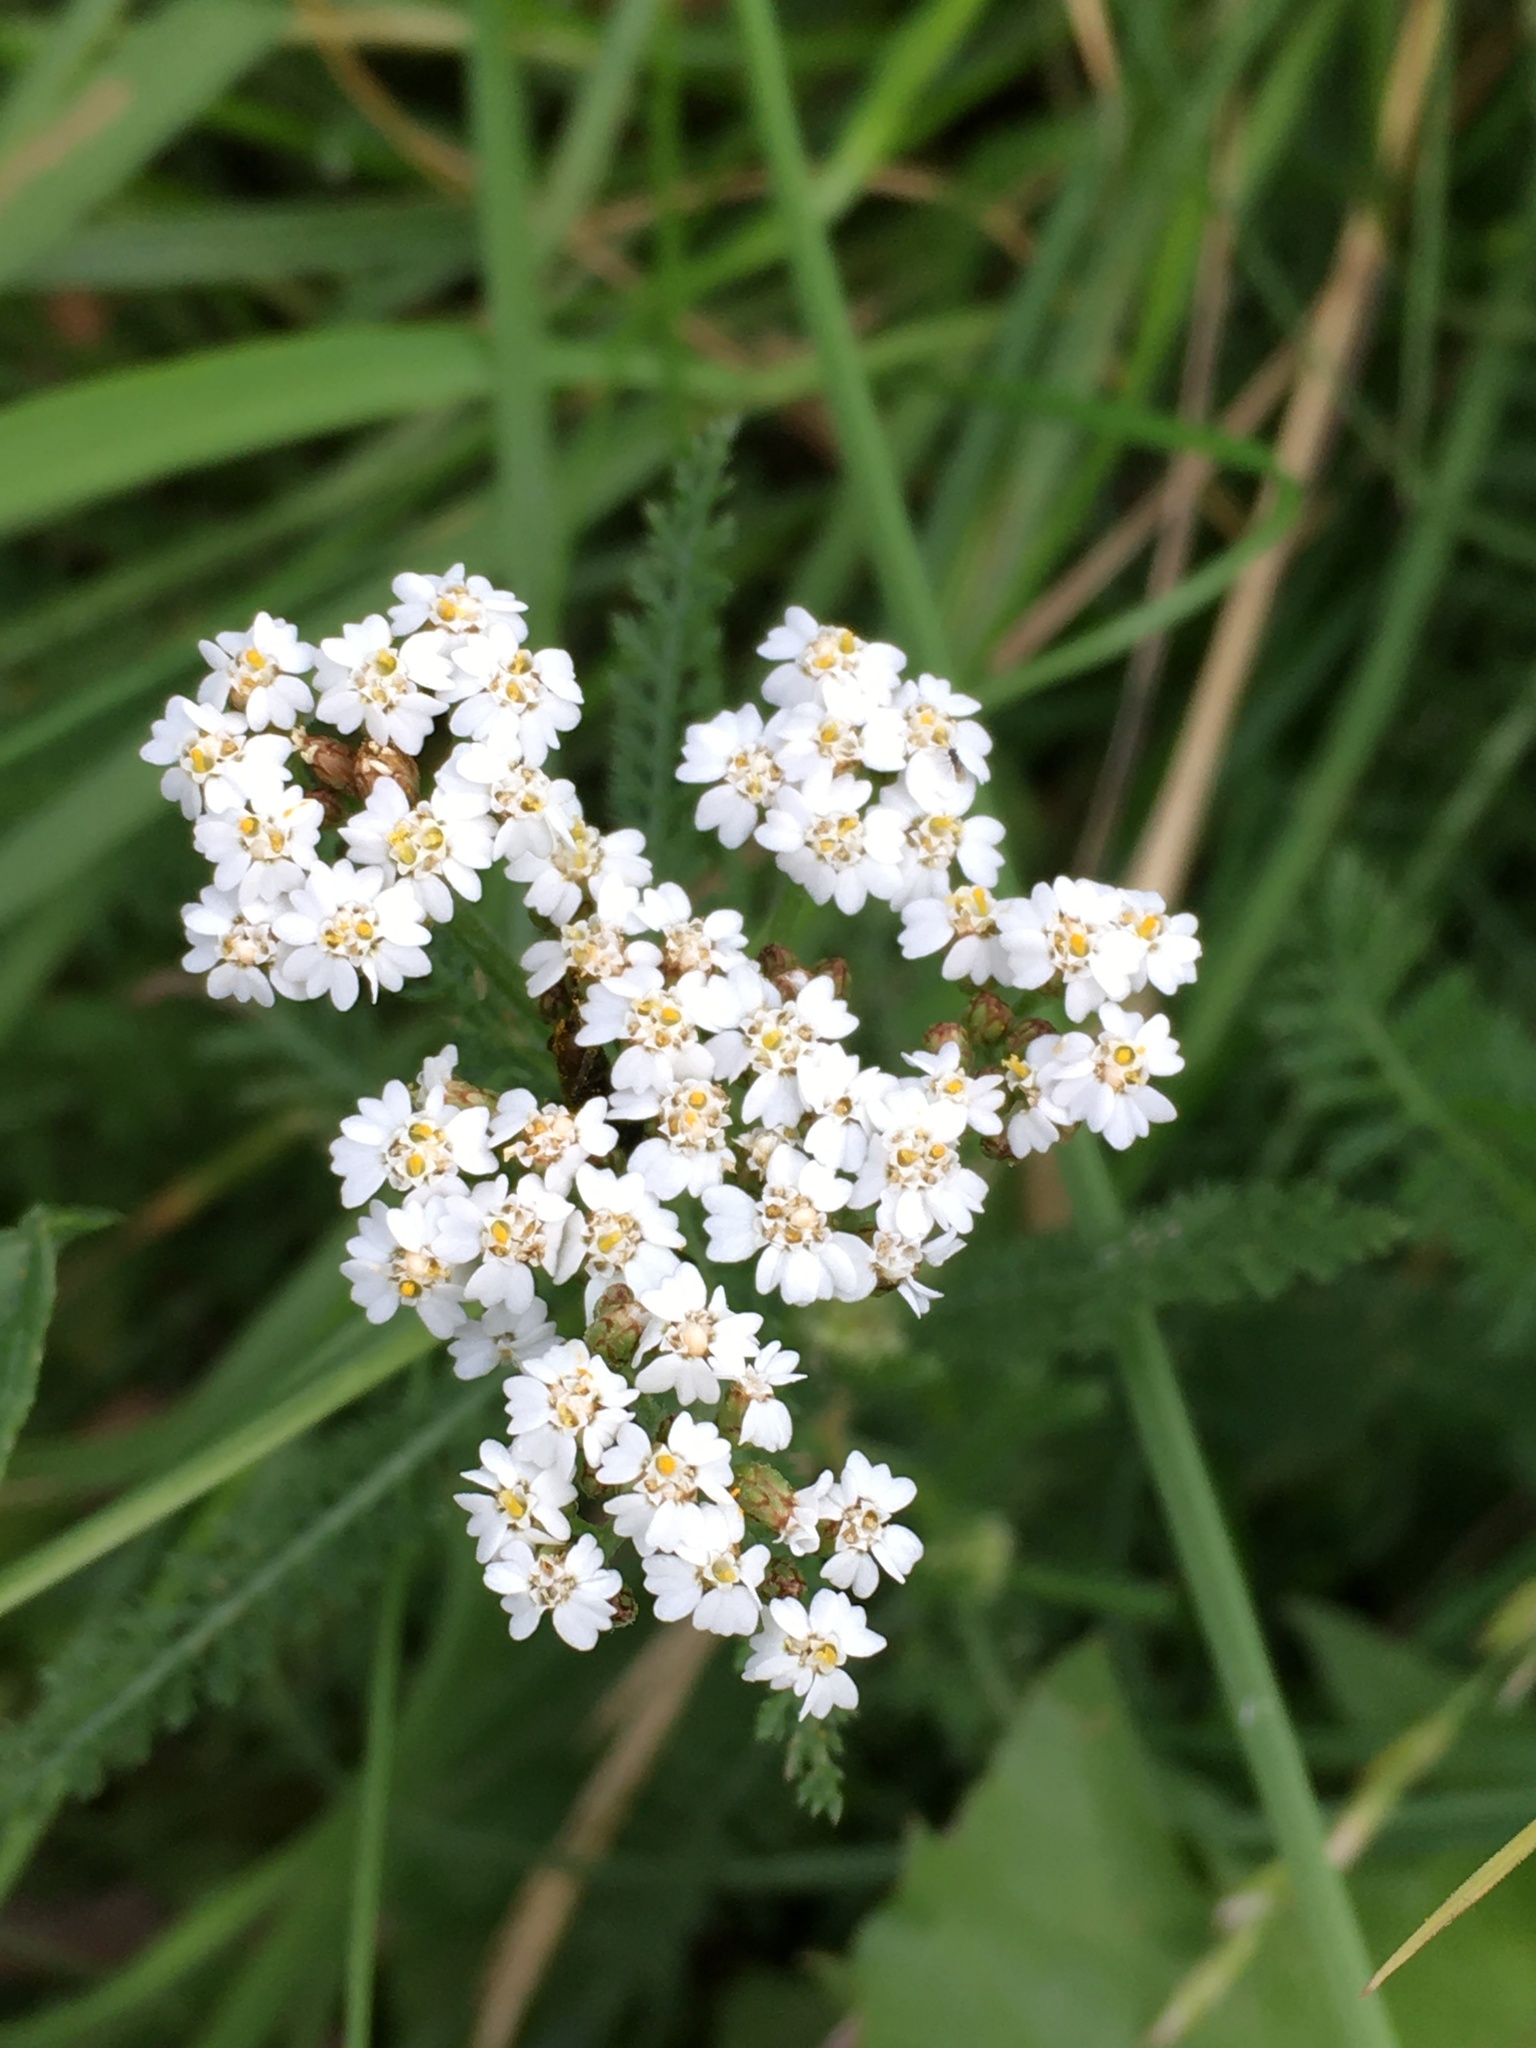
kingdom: Plantae
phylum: Tracheophyta
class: Magnoliopsida
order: Asterales
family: Asteraceae
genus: Achillea
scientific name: Achillea millefolium
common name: Yarrow
